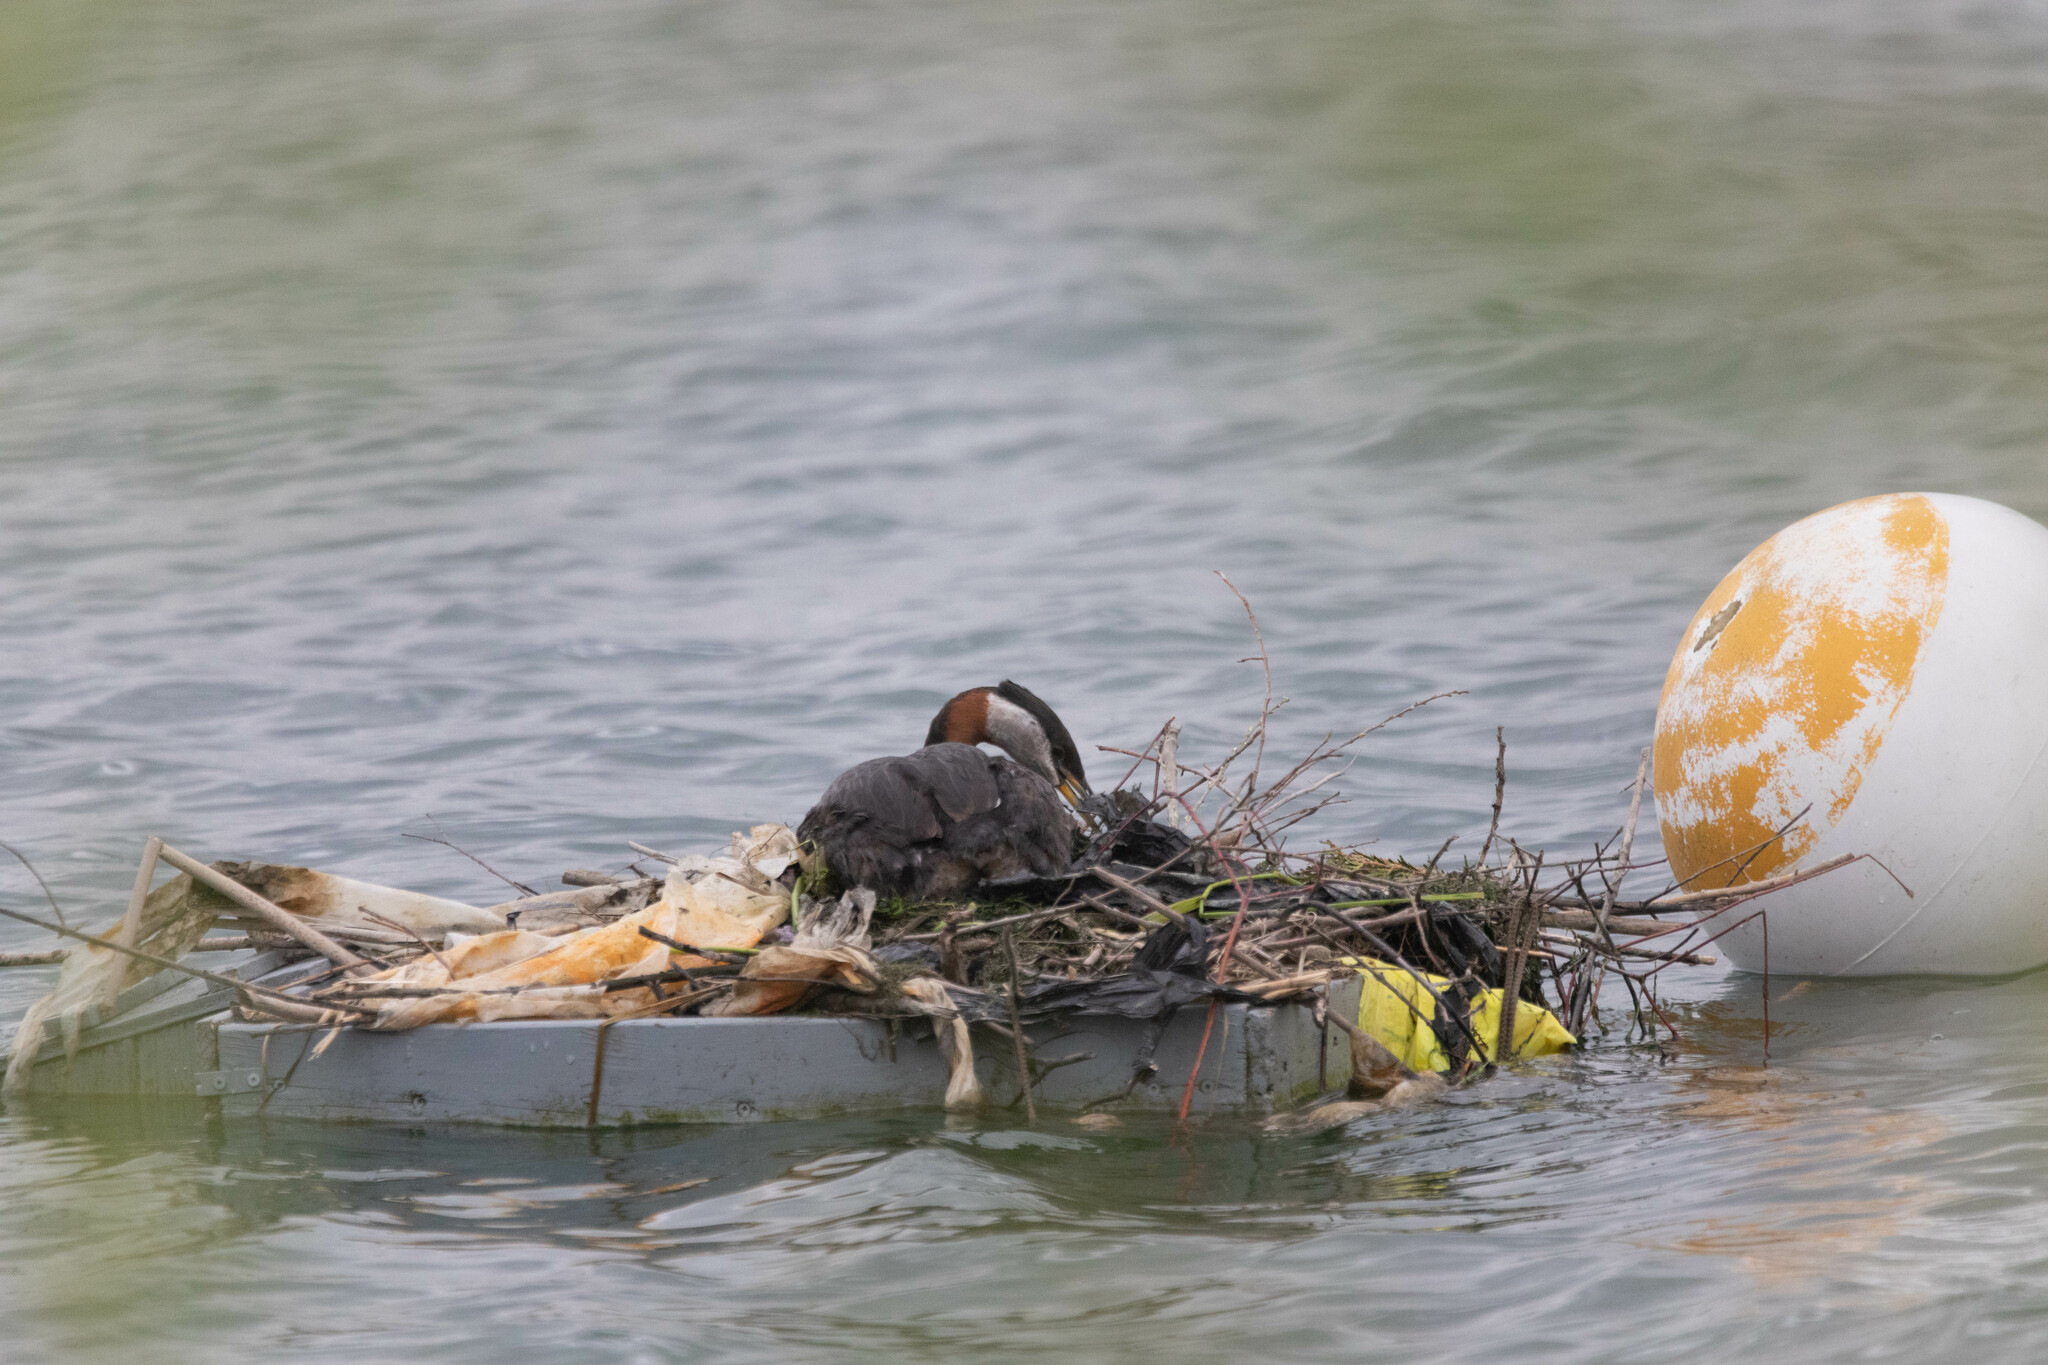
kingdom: Animalia
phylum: Chordata
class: Aves
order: Podicipediformes
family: Podicipedidae
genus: Podiceps
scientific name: Podiceps grisegena
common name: Red-necked grebe
